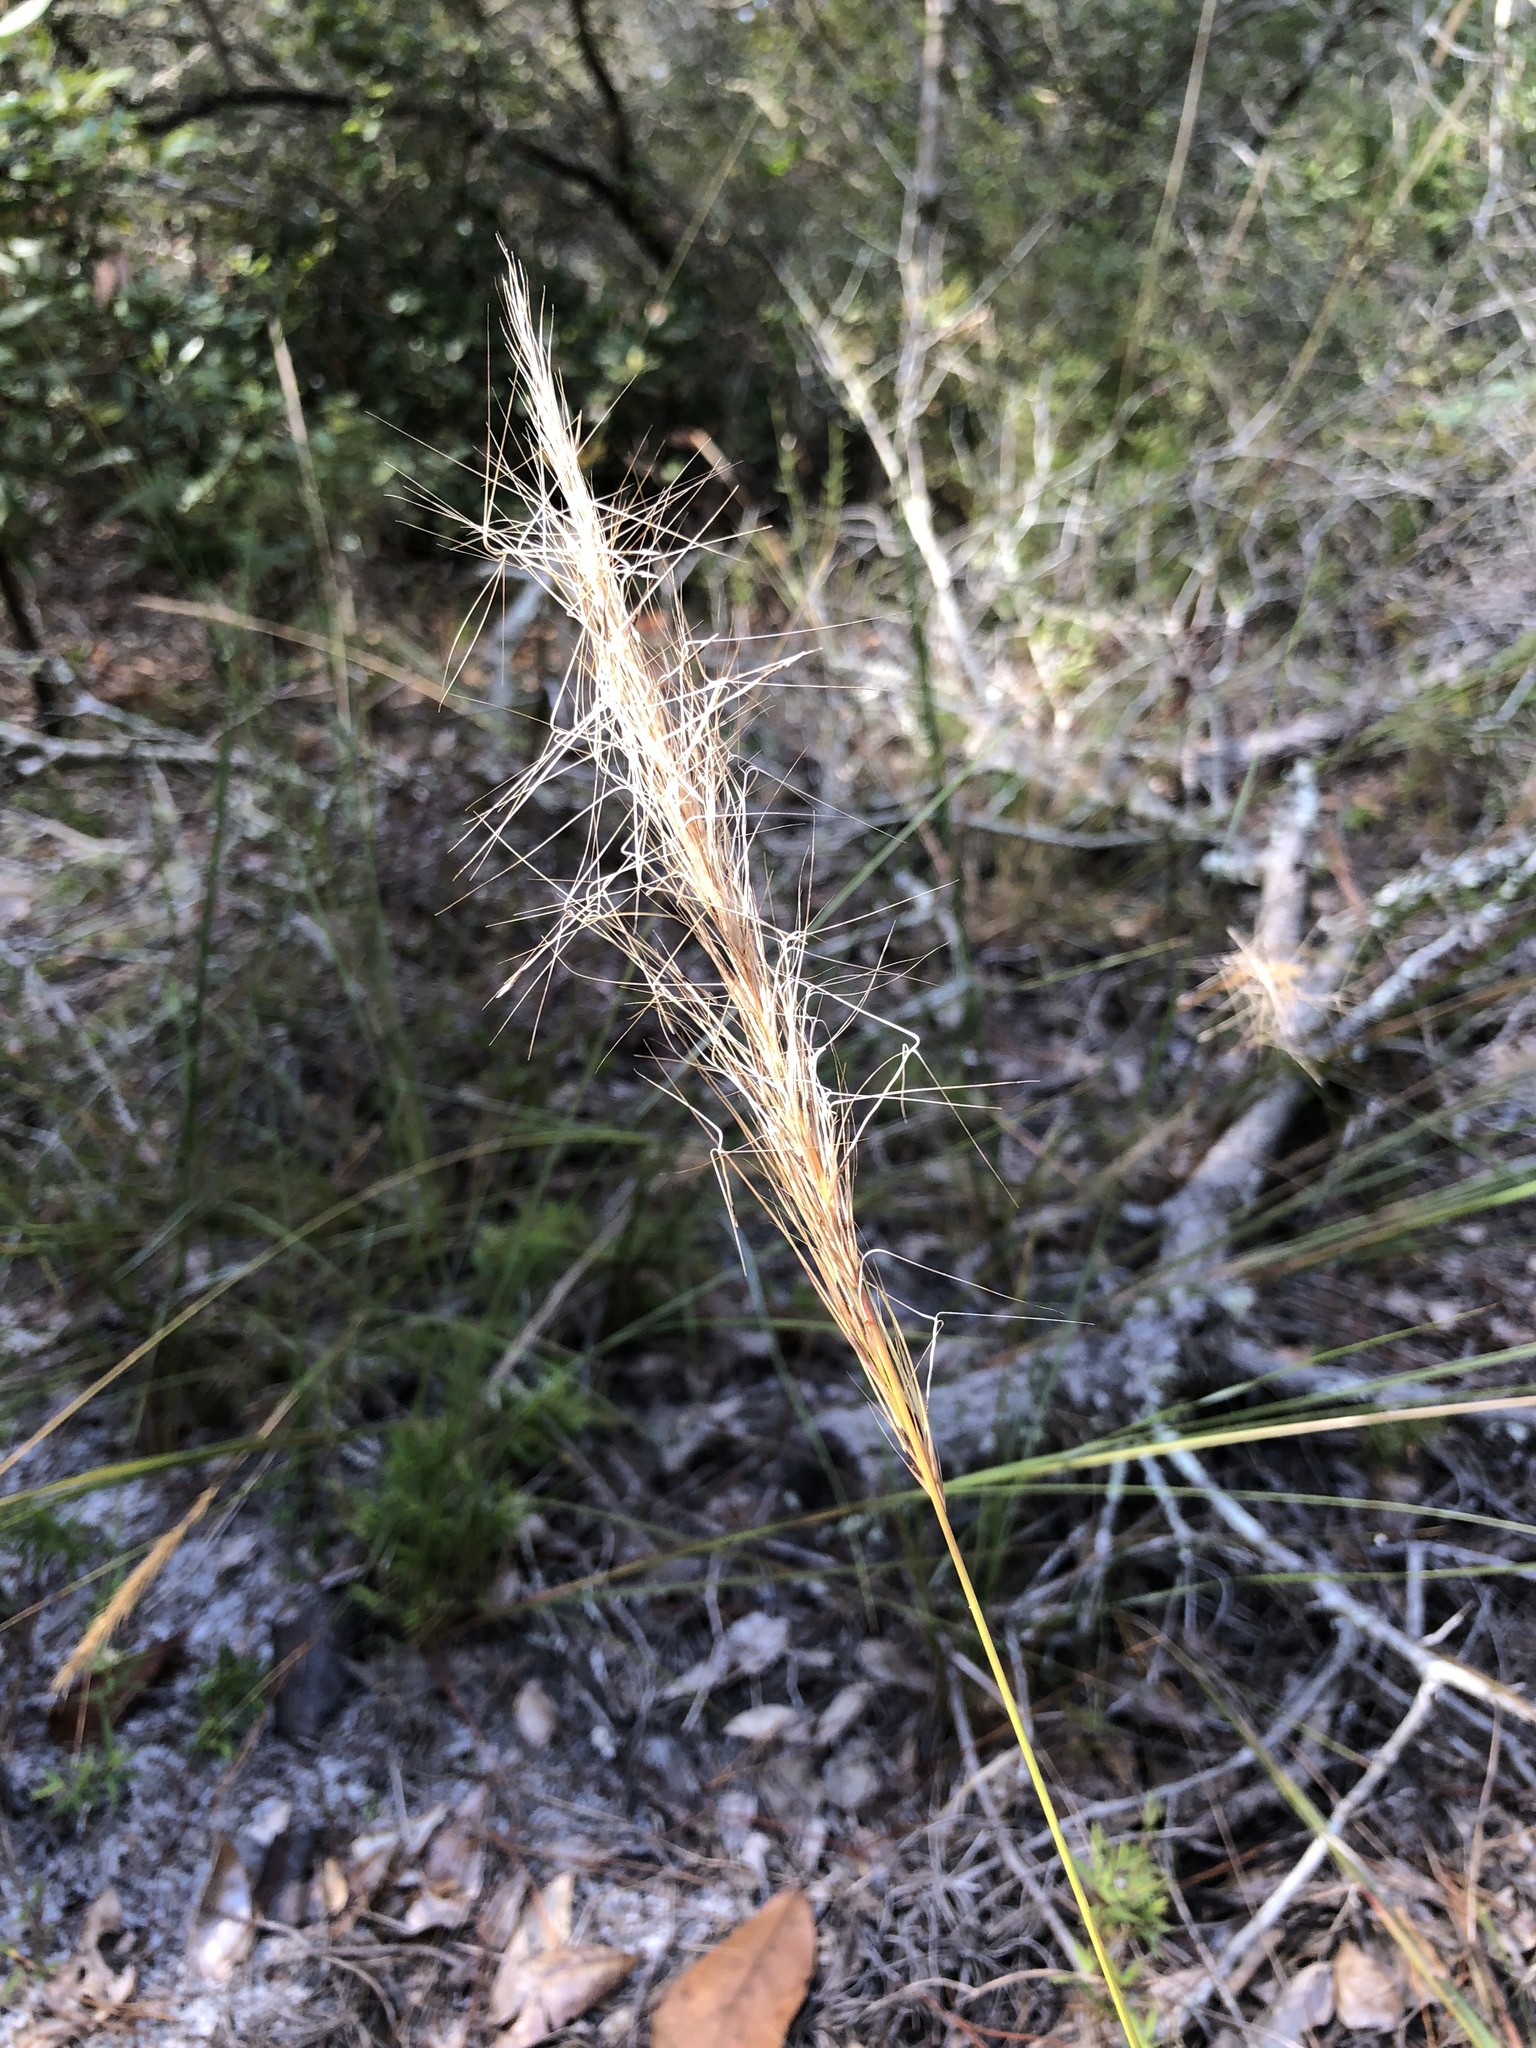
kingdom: Plantae
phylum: Tracheophyta
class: Liliopsida
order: Poales
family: Poaceae
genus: Aristida
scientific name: Aristida spiciformis
